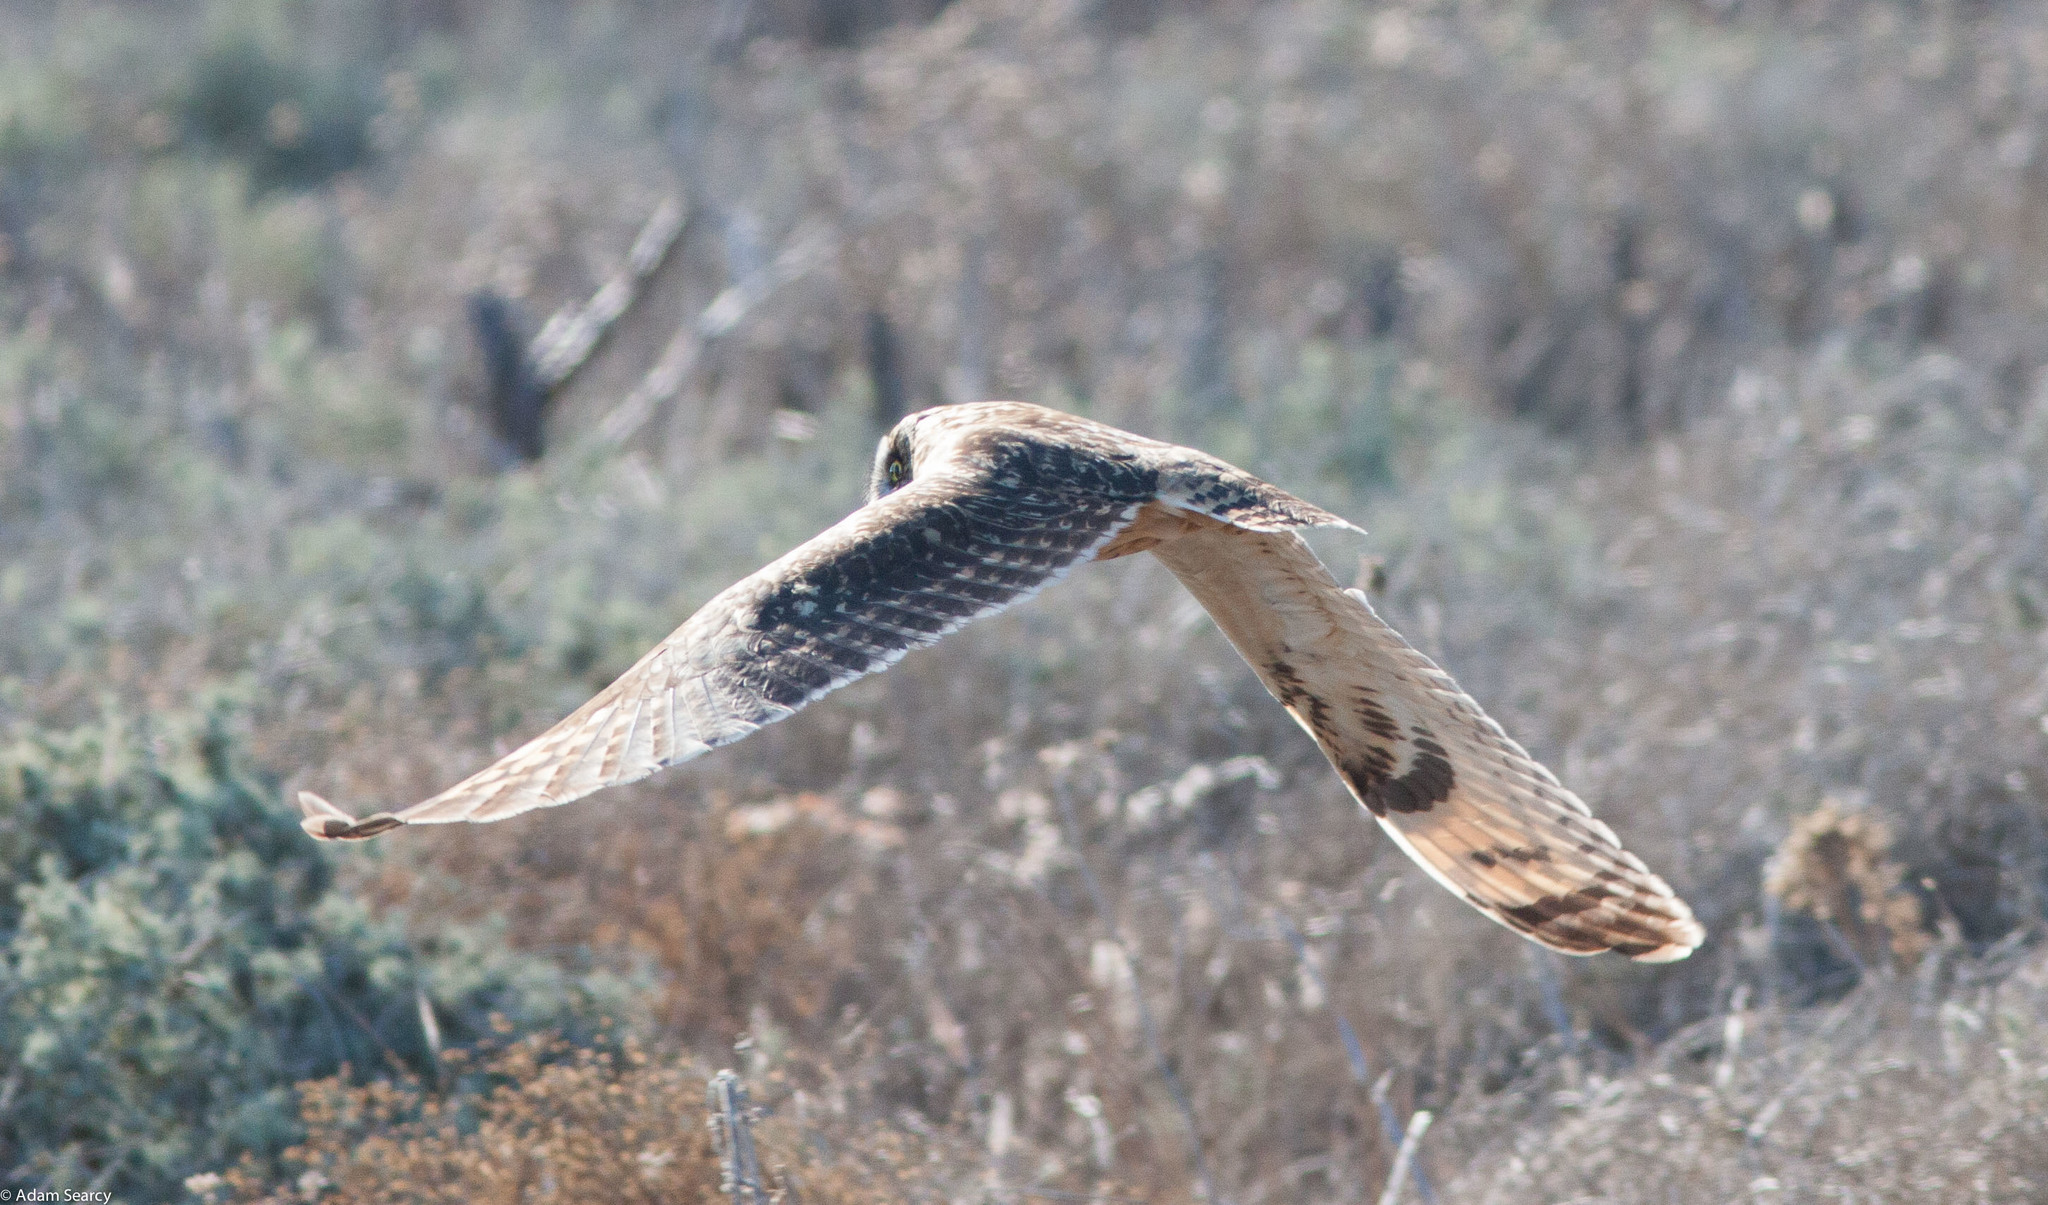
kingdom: Animalia
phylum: Chordata
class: Aves
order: Strigiformes
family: Strigidae
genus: Asio
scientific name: Asio flammeus
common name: Short-eared owl
